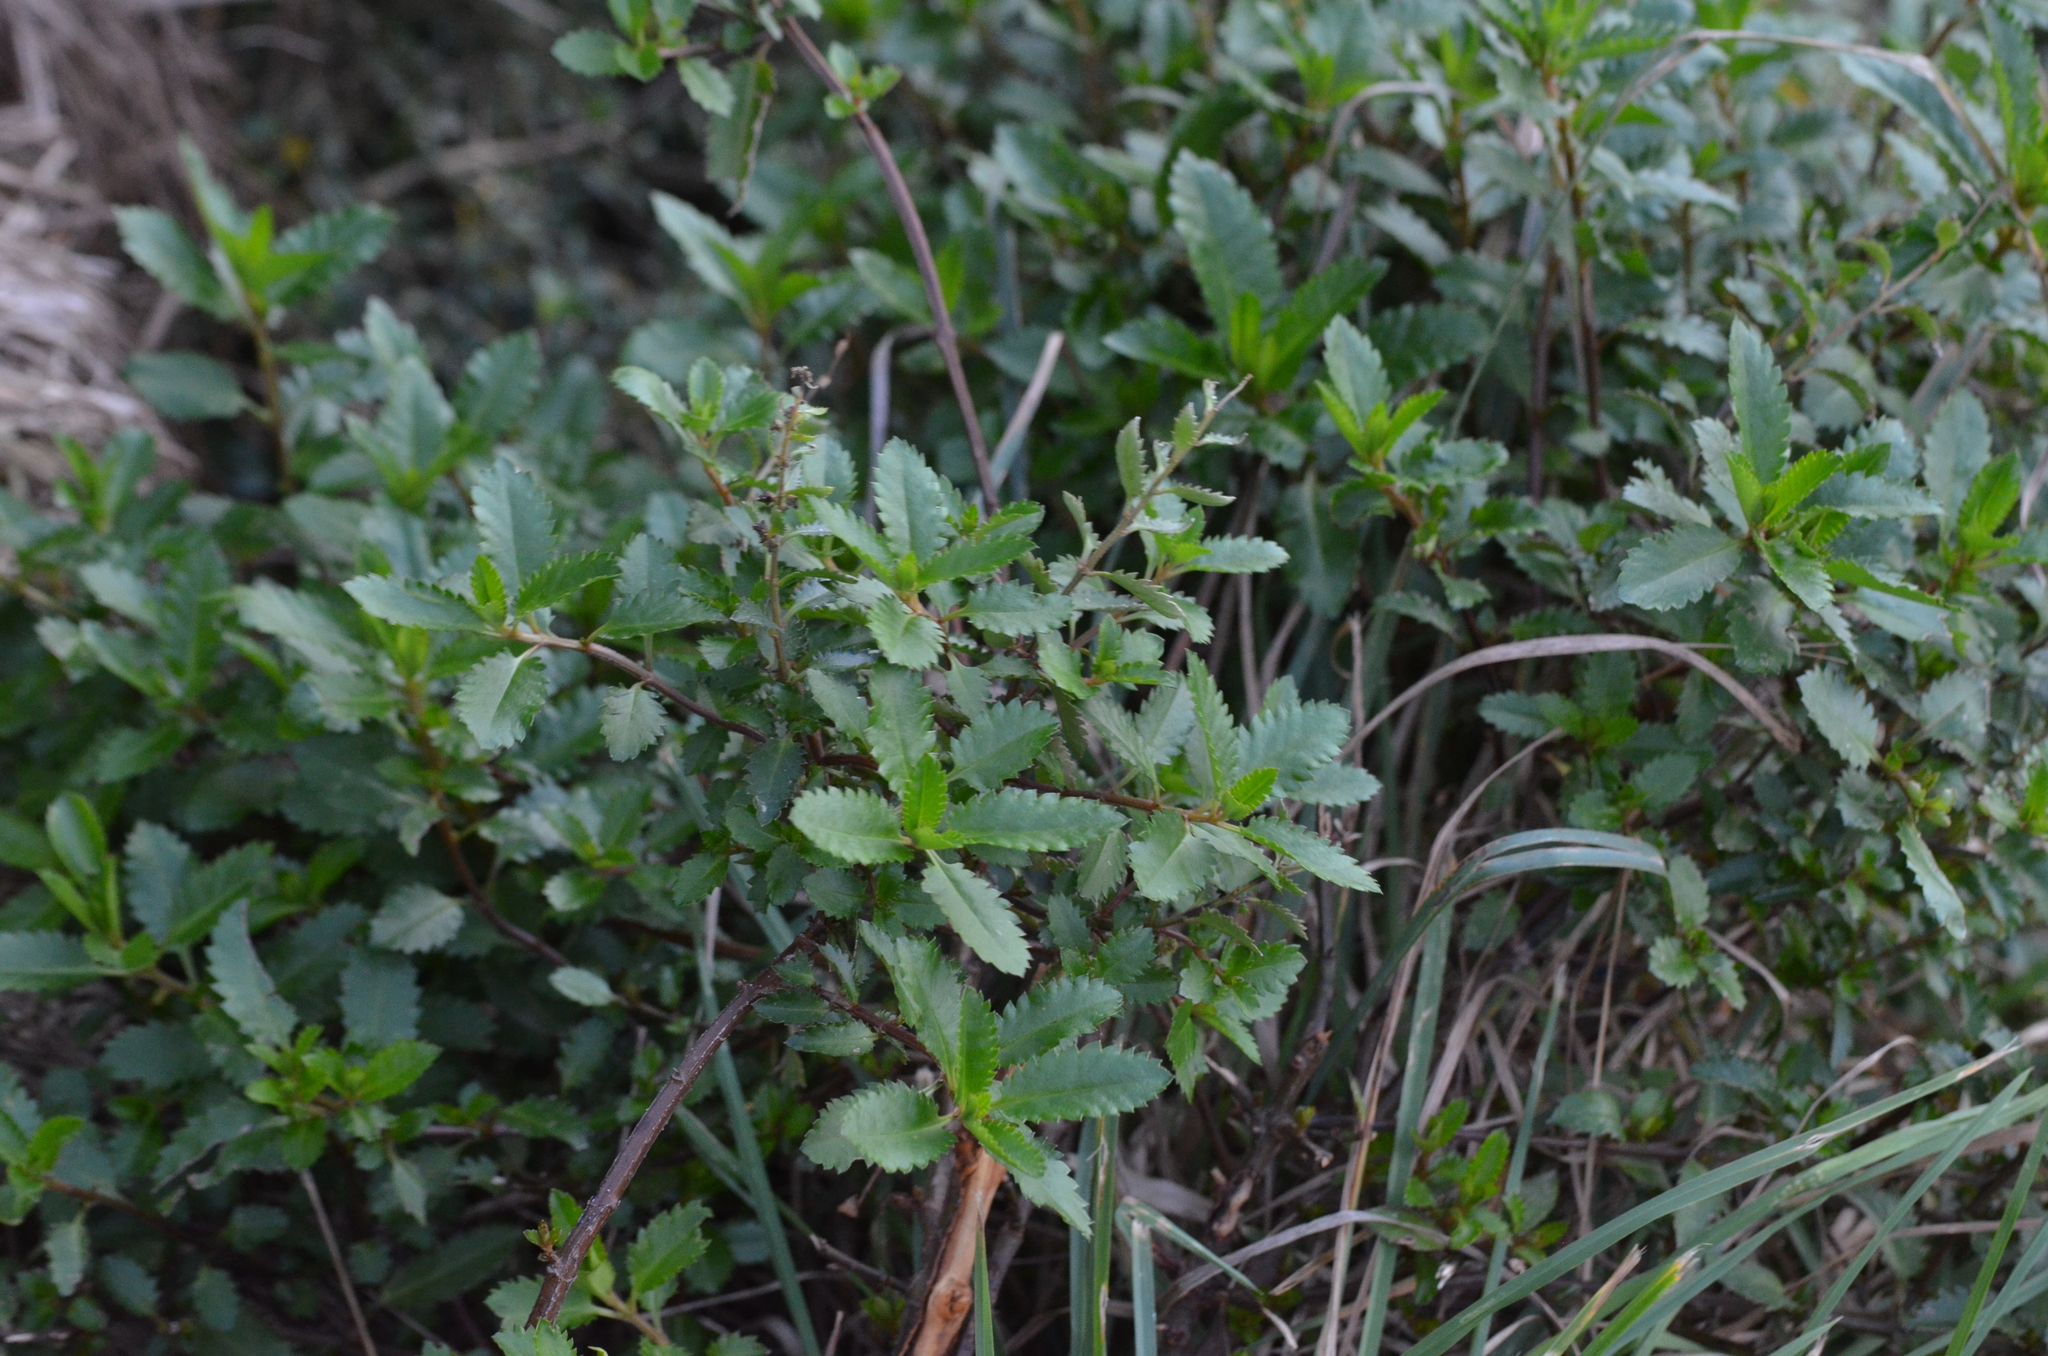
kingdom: Plantae
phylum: Tracheophyta
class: Magnoliopsida
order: Saxifragales
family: Haloragaceae
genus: Haloragis
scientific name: Haloragis erecta
